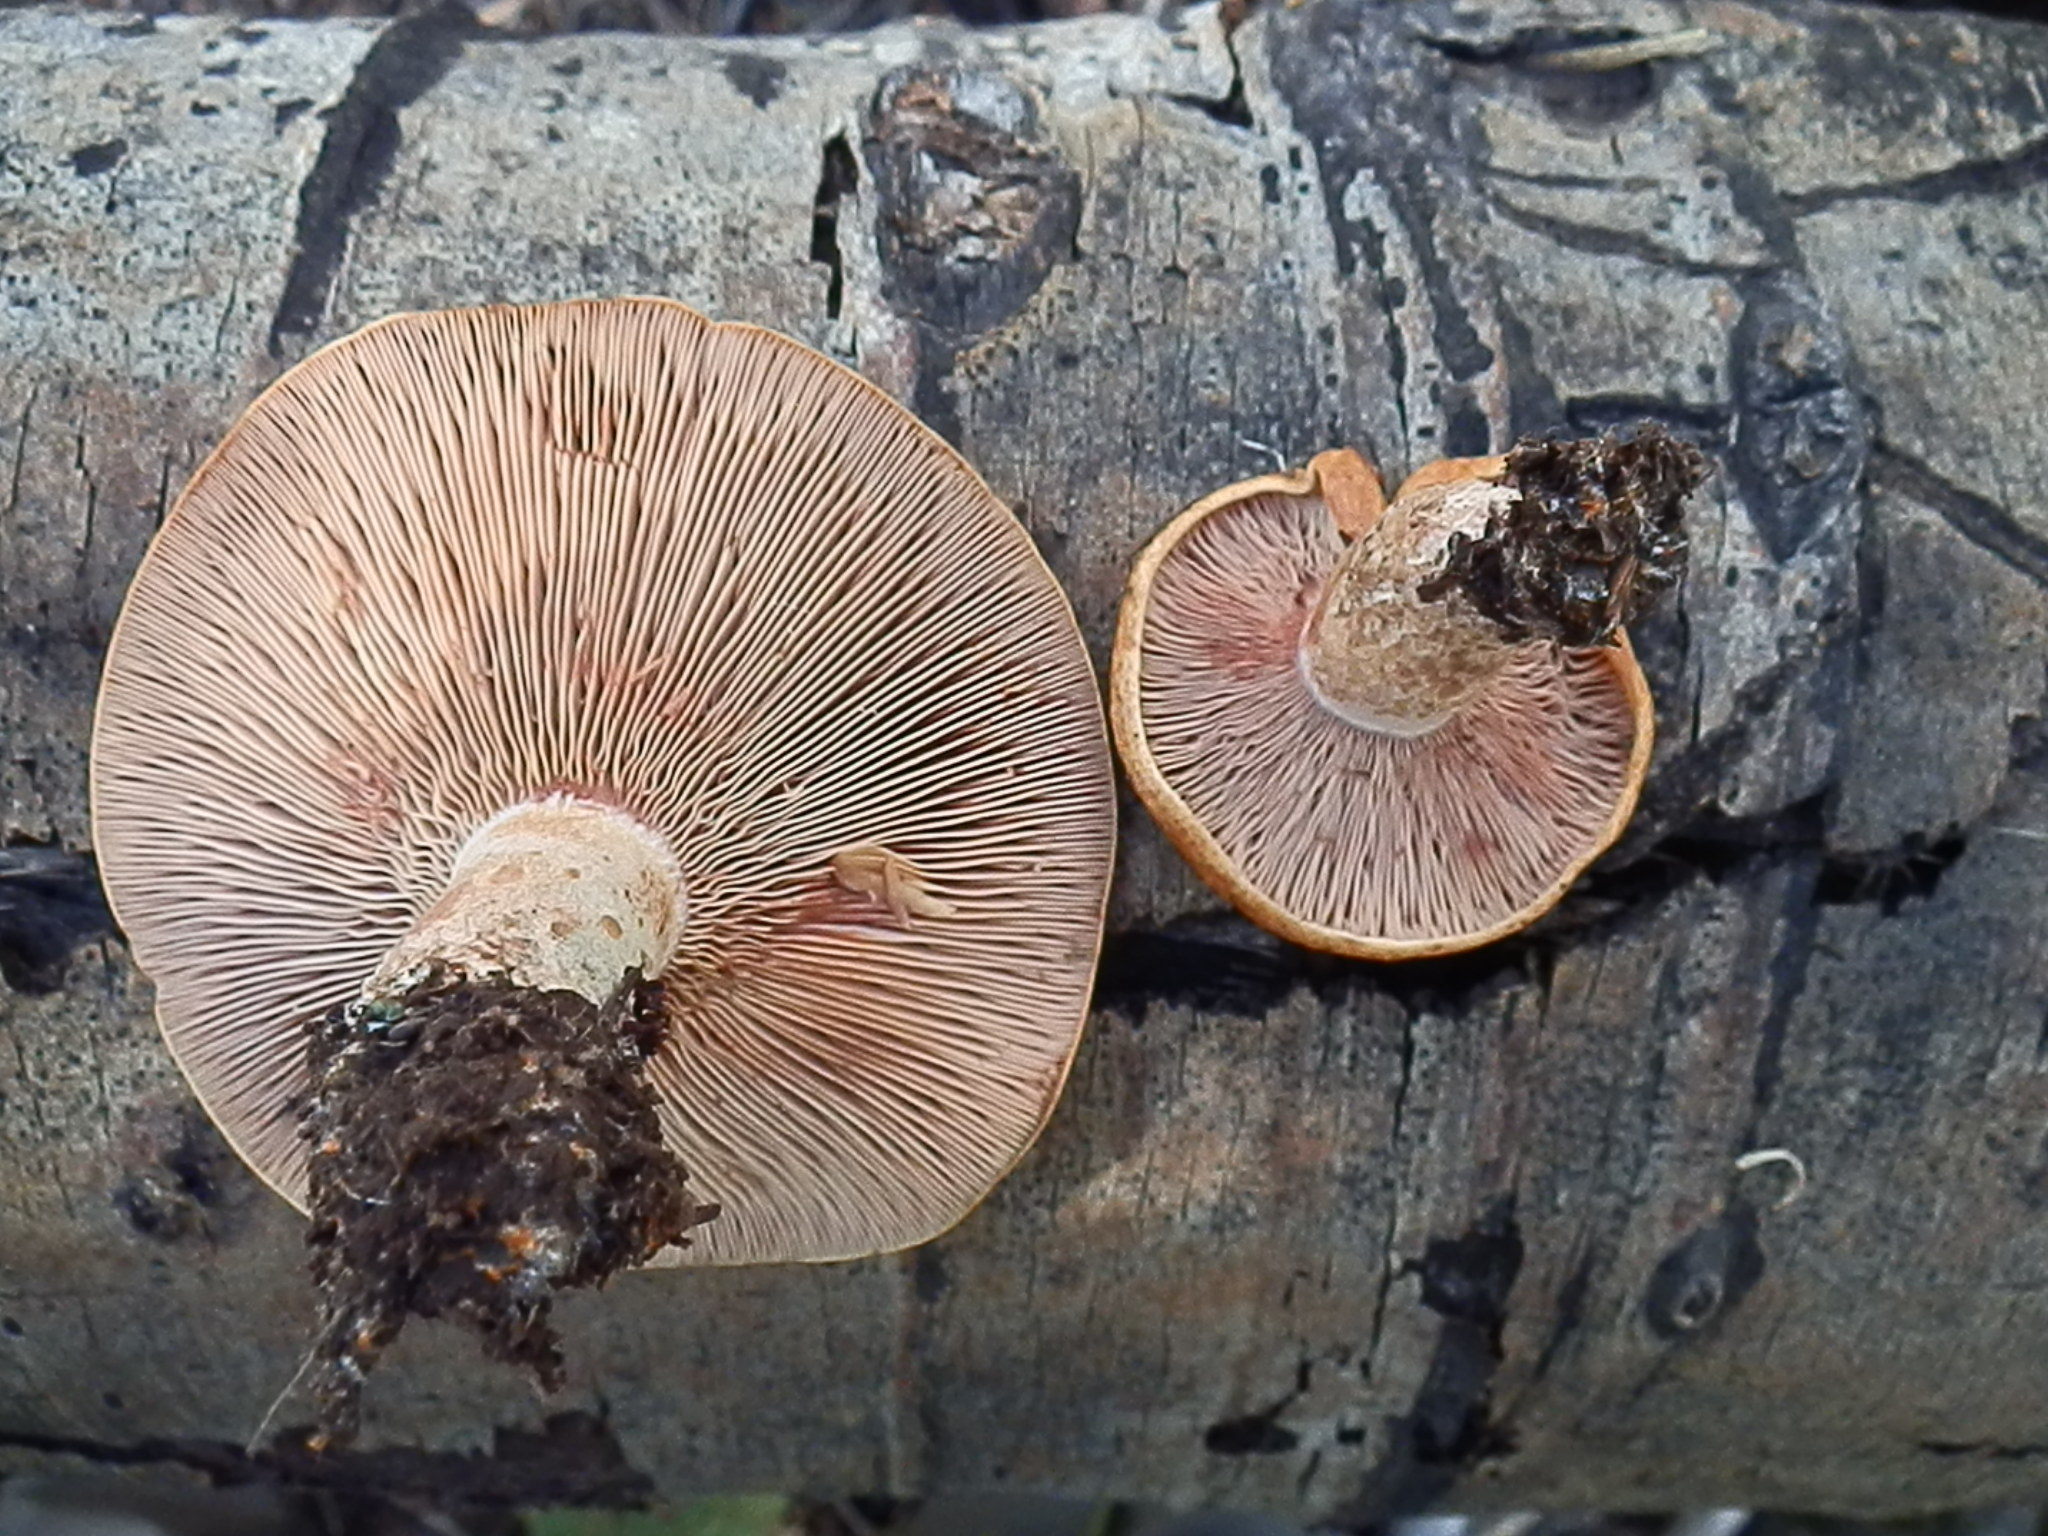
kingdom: Fungi
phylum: Basidiomycota
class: Agaricomycetes
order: Russulales
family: Russulaceae
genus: Lactarius
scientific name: Lactarius deliciosus
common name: Saffron milk-cap
